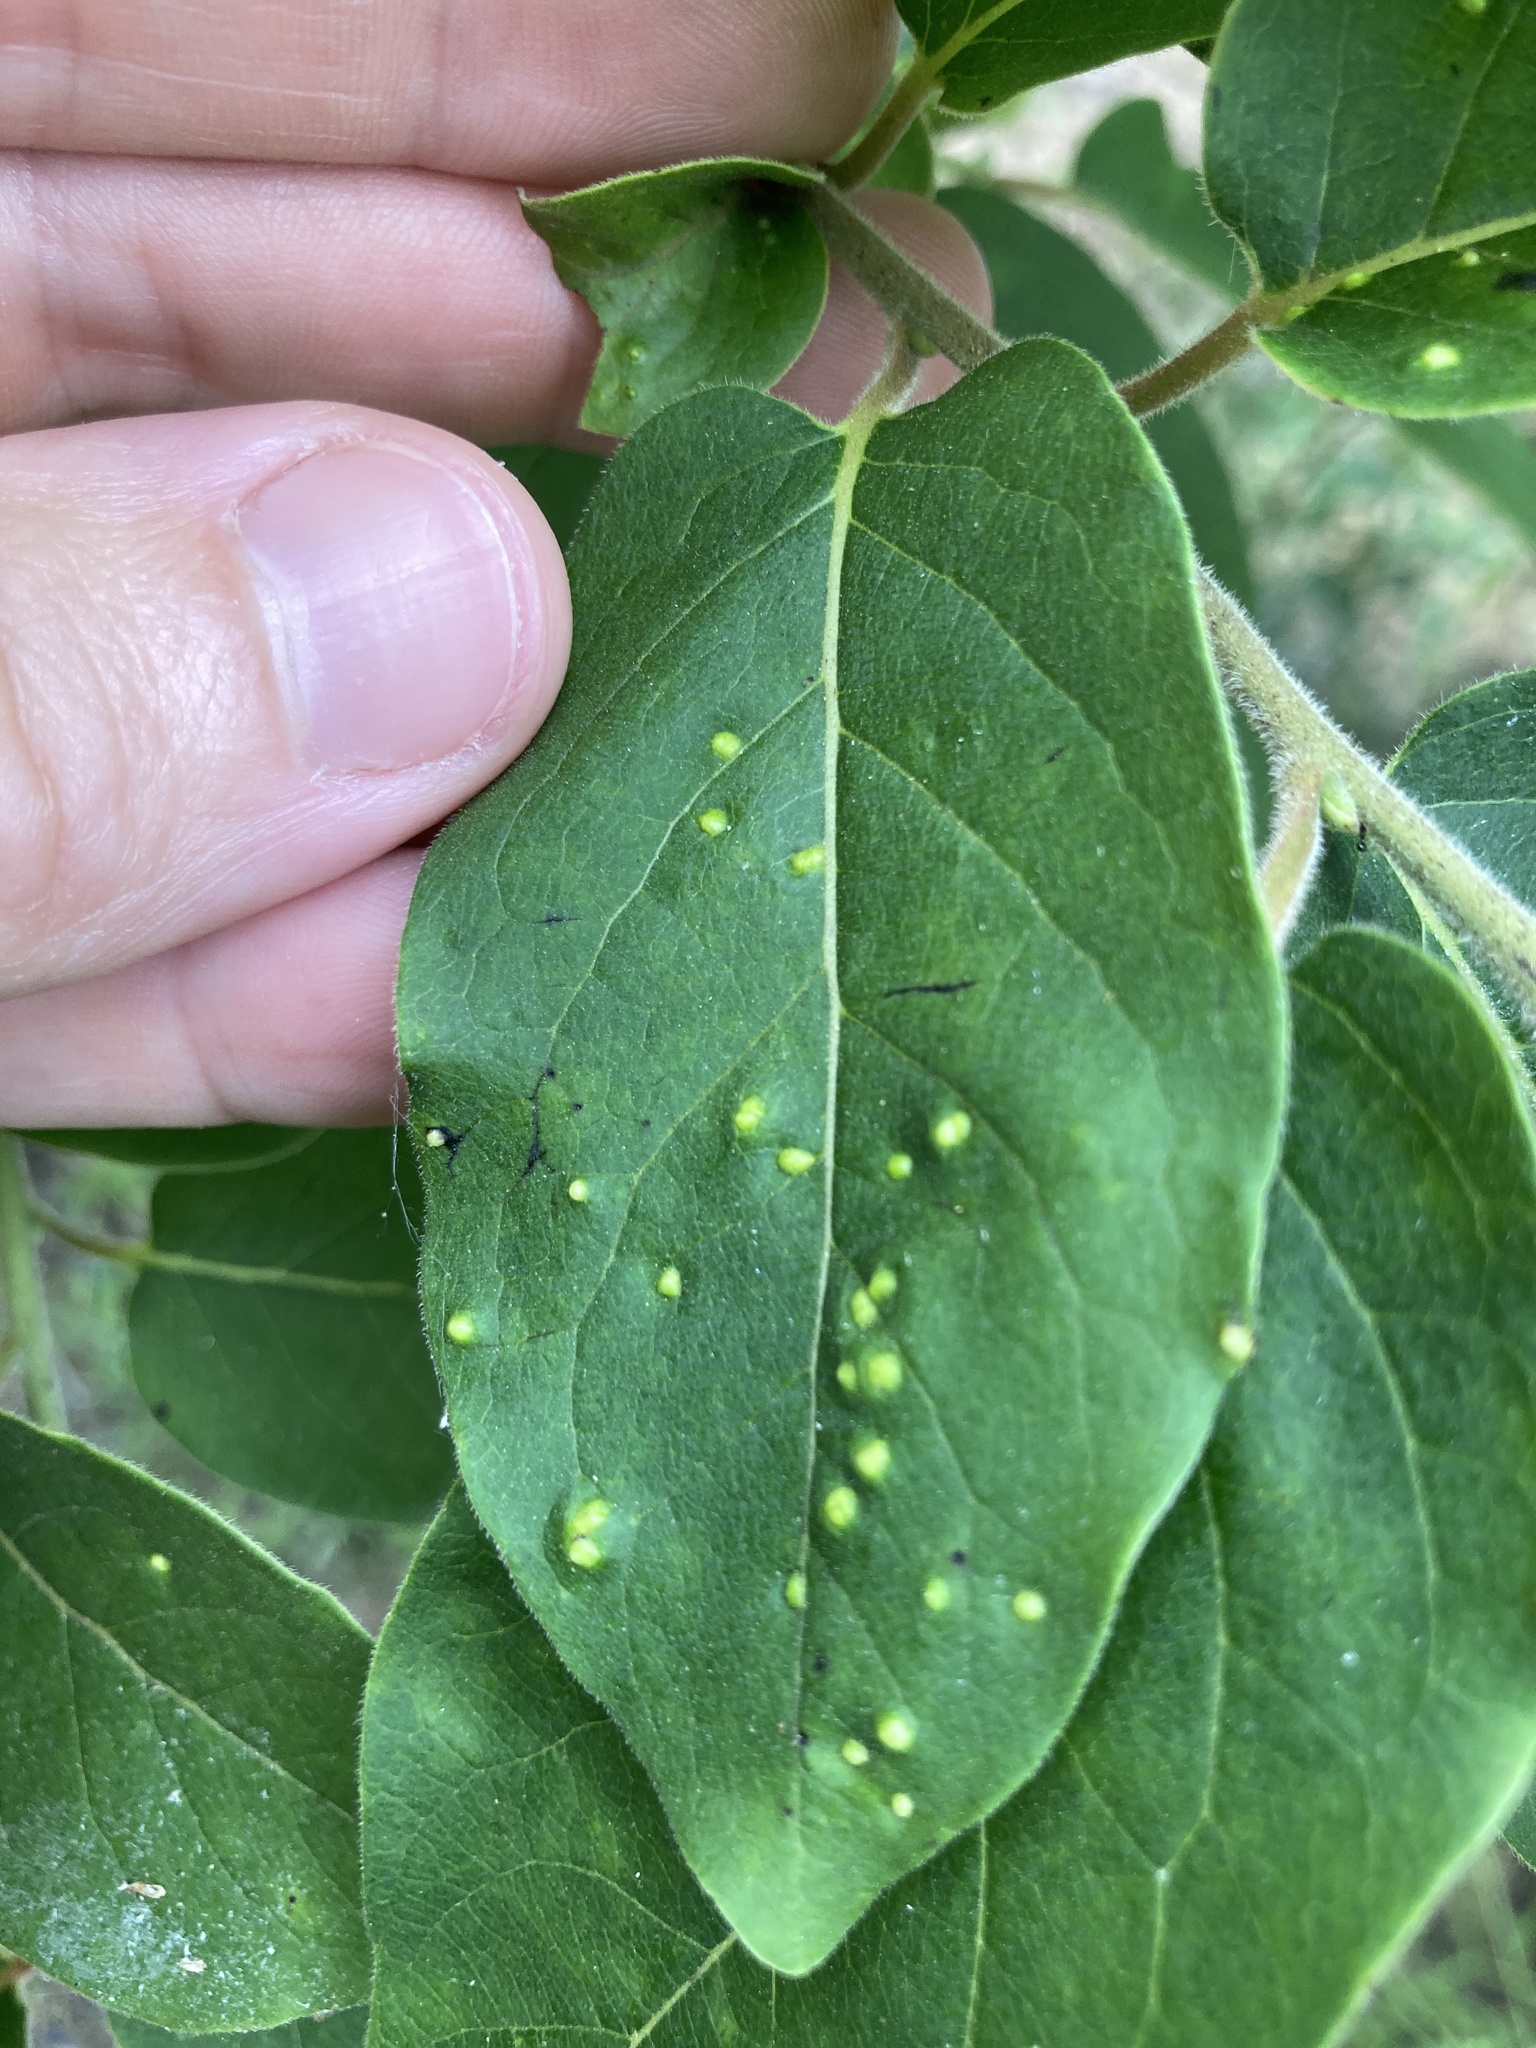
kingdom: Animalia
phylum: Arthropoda
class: Arachnida
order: Trombidiformes
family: Eriophyidae
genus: Aceria
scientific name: Aceria
